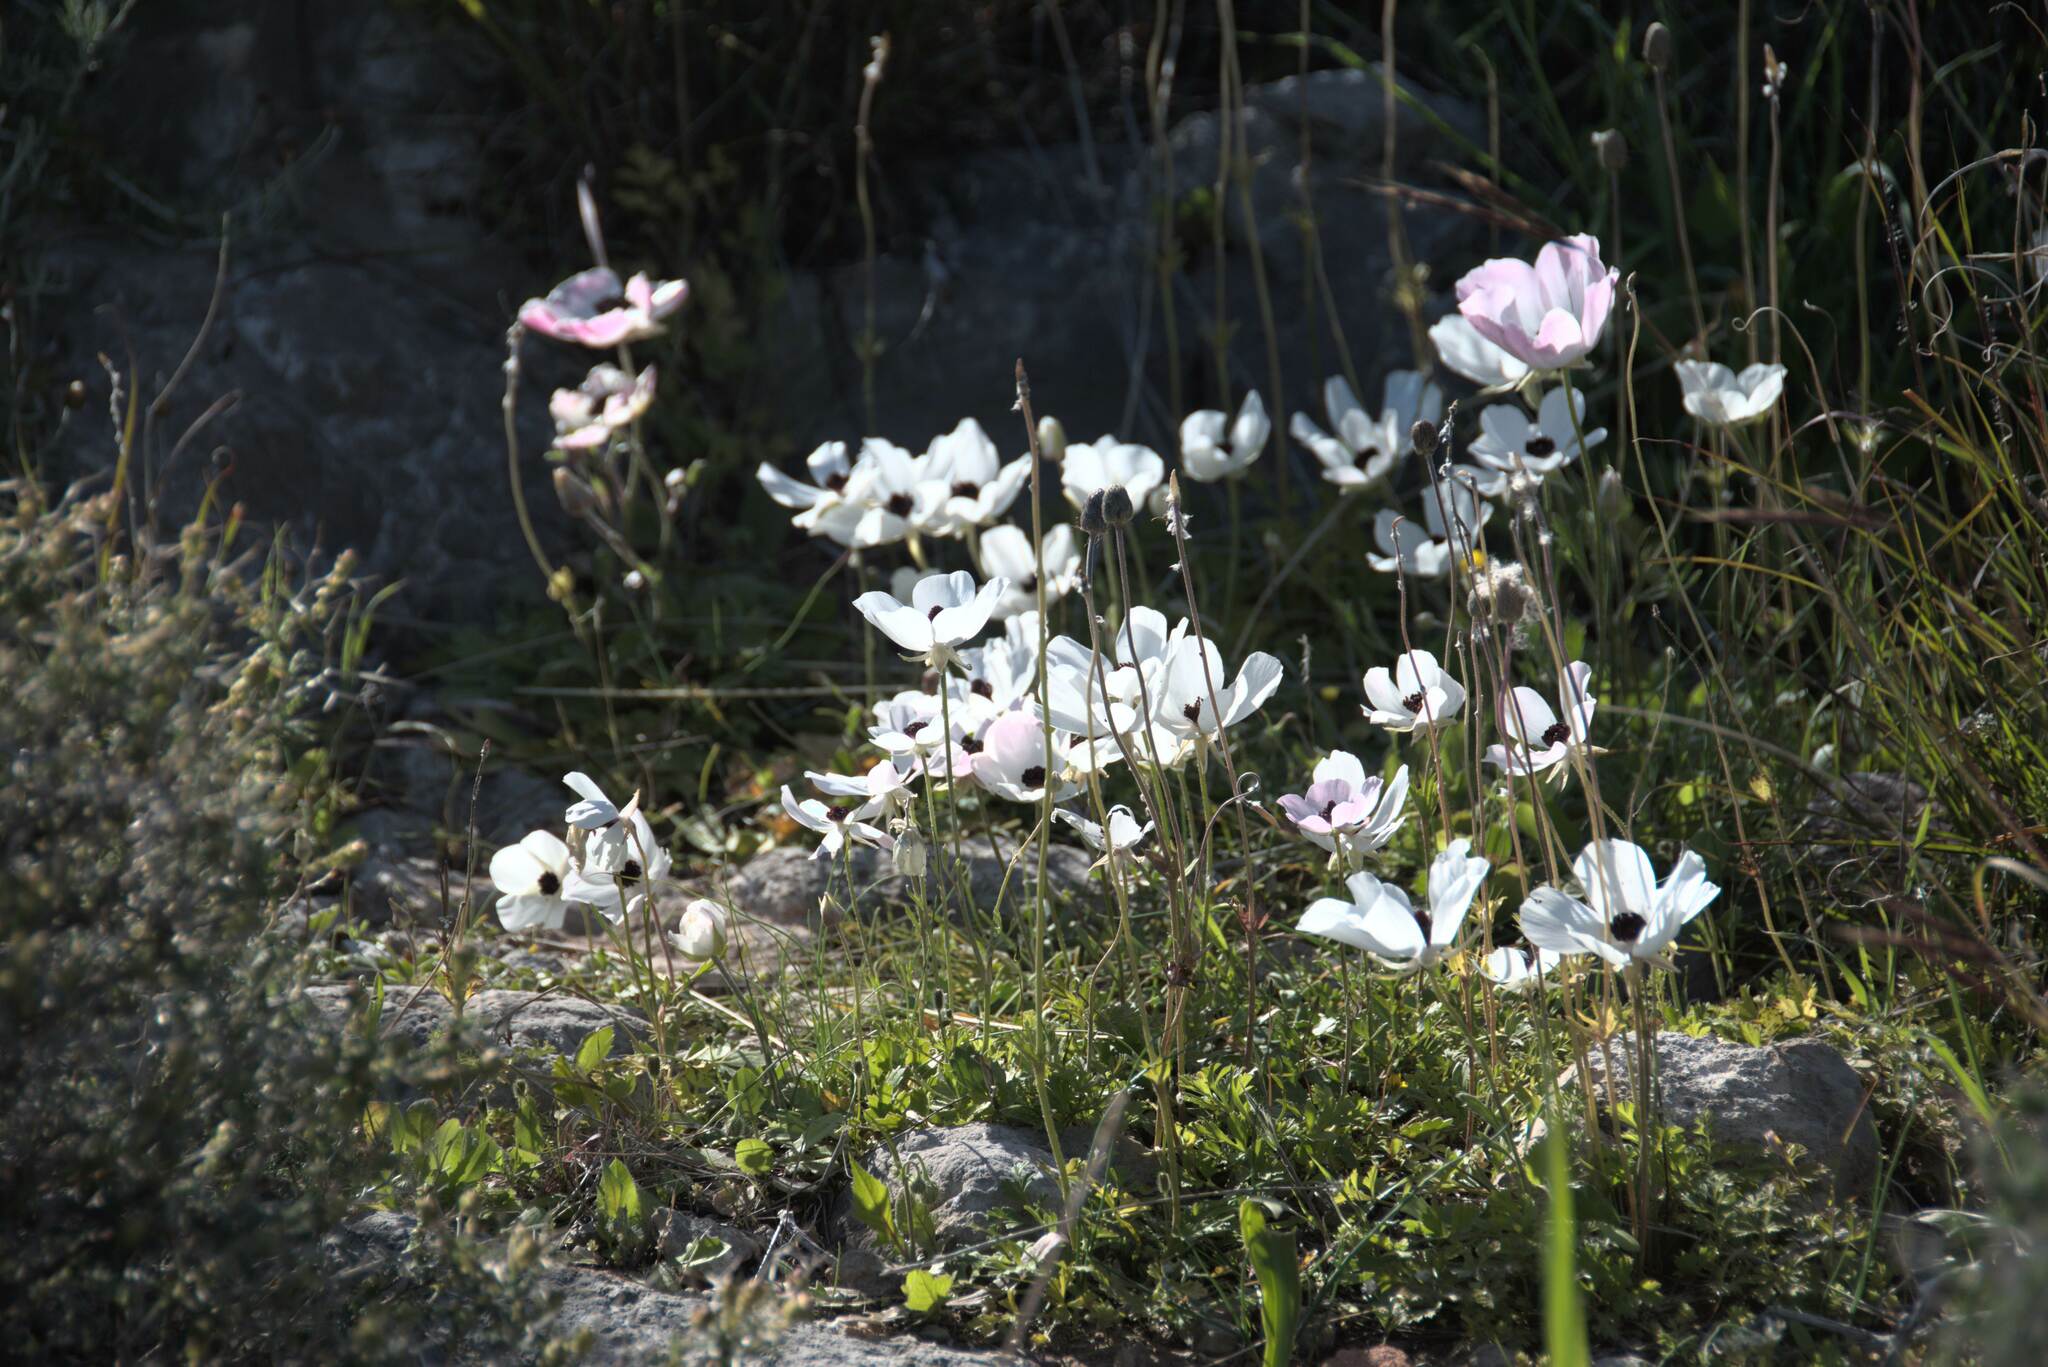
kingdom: Plantae
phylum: Tracheophyta
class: Magnoliopsida
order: Ranunculales
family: Ranunculaceae
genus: Ranunculus
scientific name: Ranunculus asiaticus
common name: Persian buttercup
